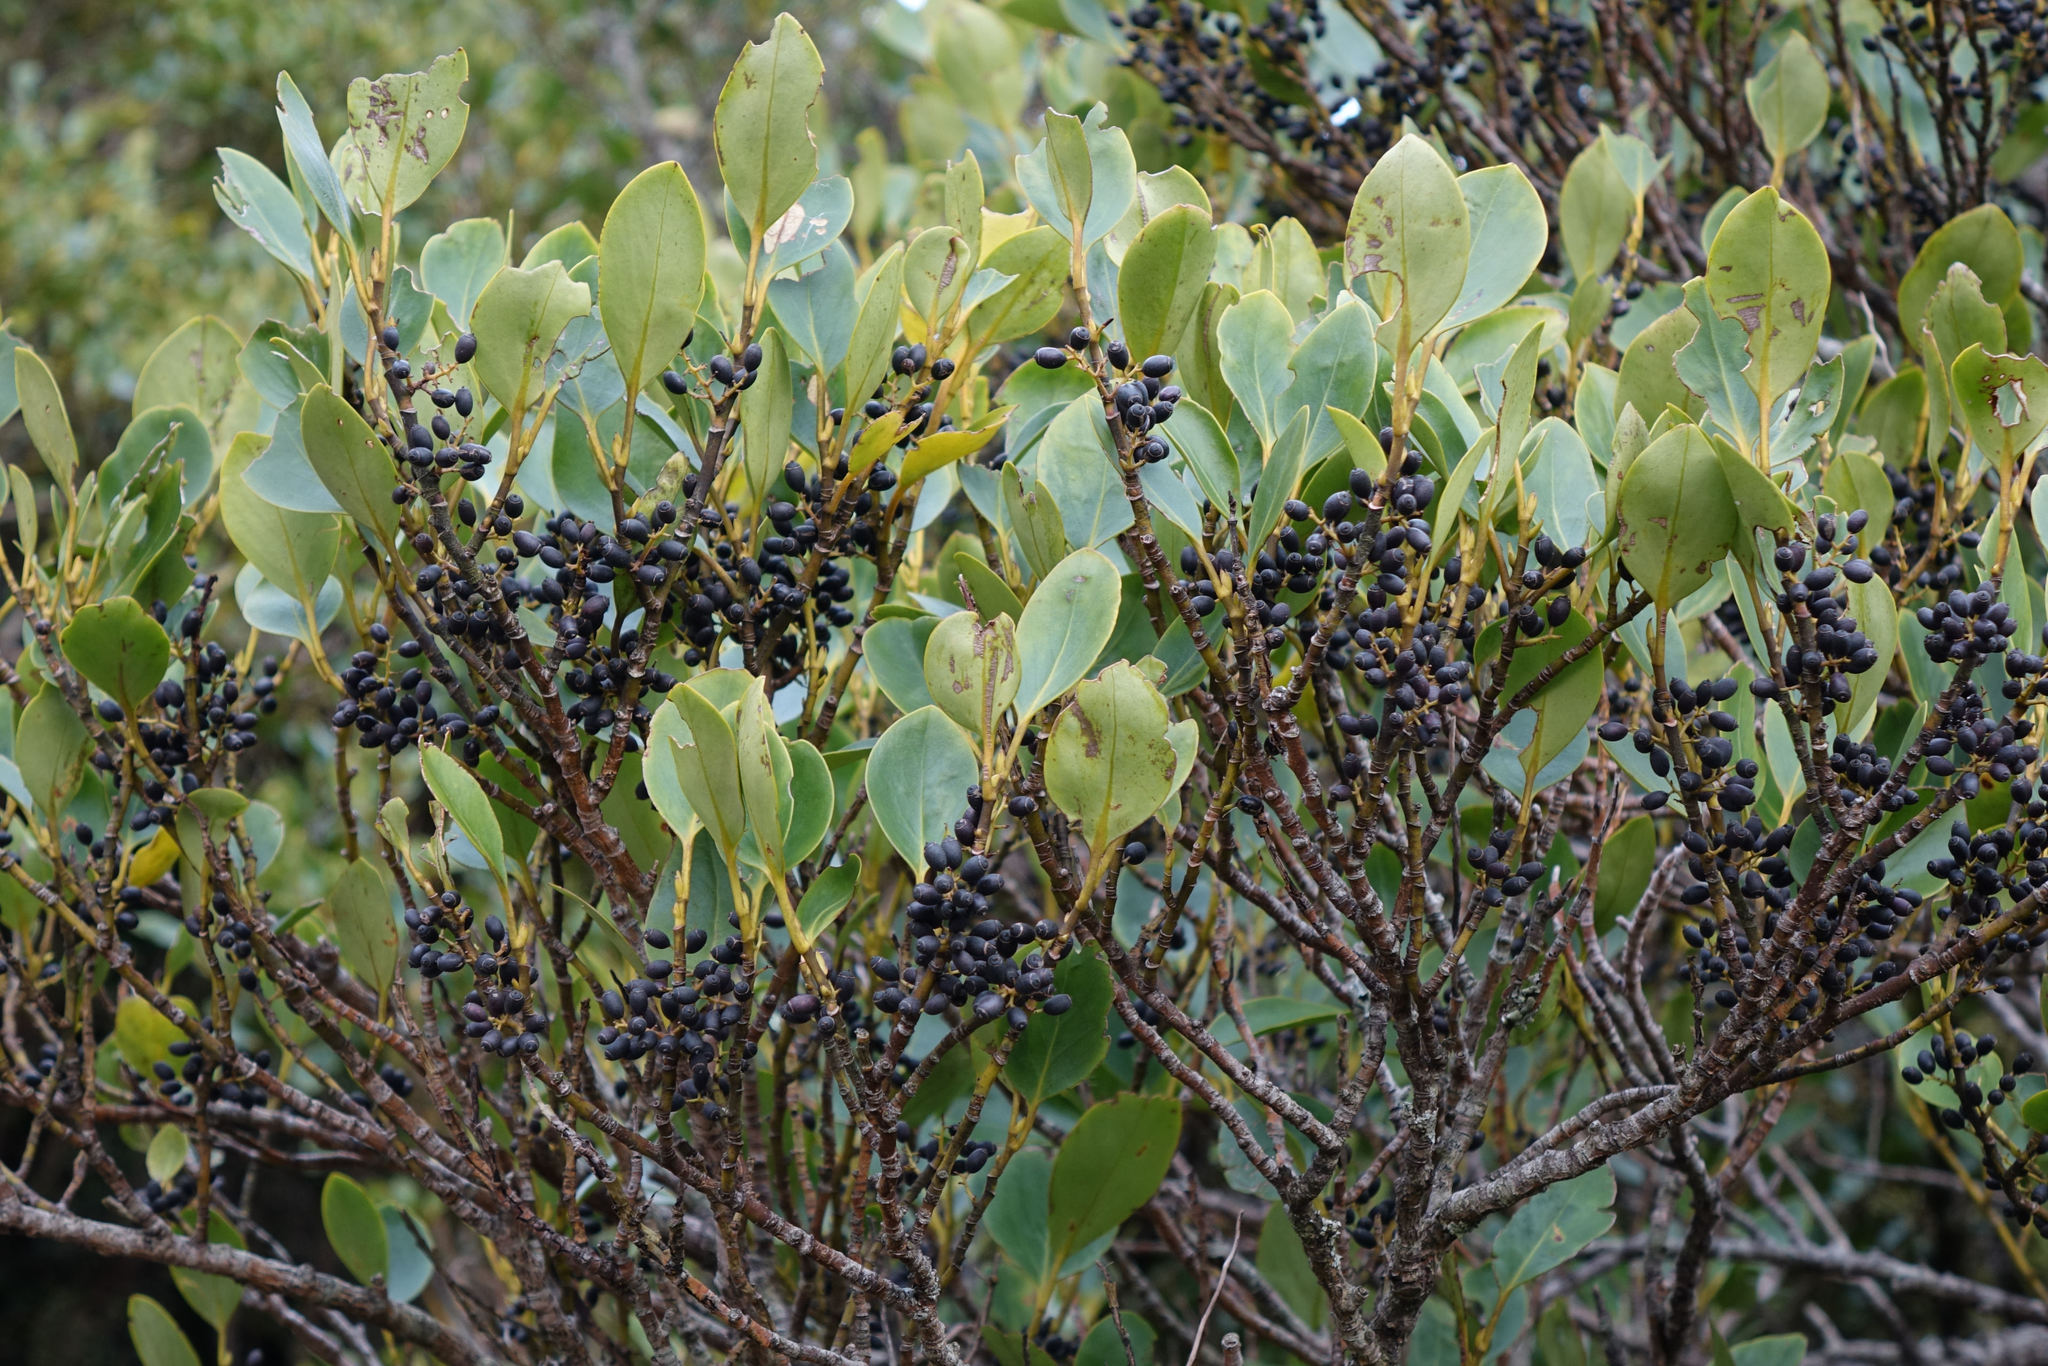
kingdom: Plantae
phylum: Tracheophyta
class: Magnoliopsida
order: Apiales
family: Griseliniaceae
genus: Griselinia
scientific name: Griselinia littoralis
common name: New zealand broadleaf
